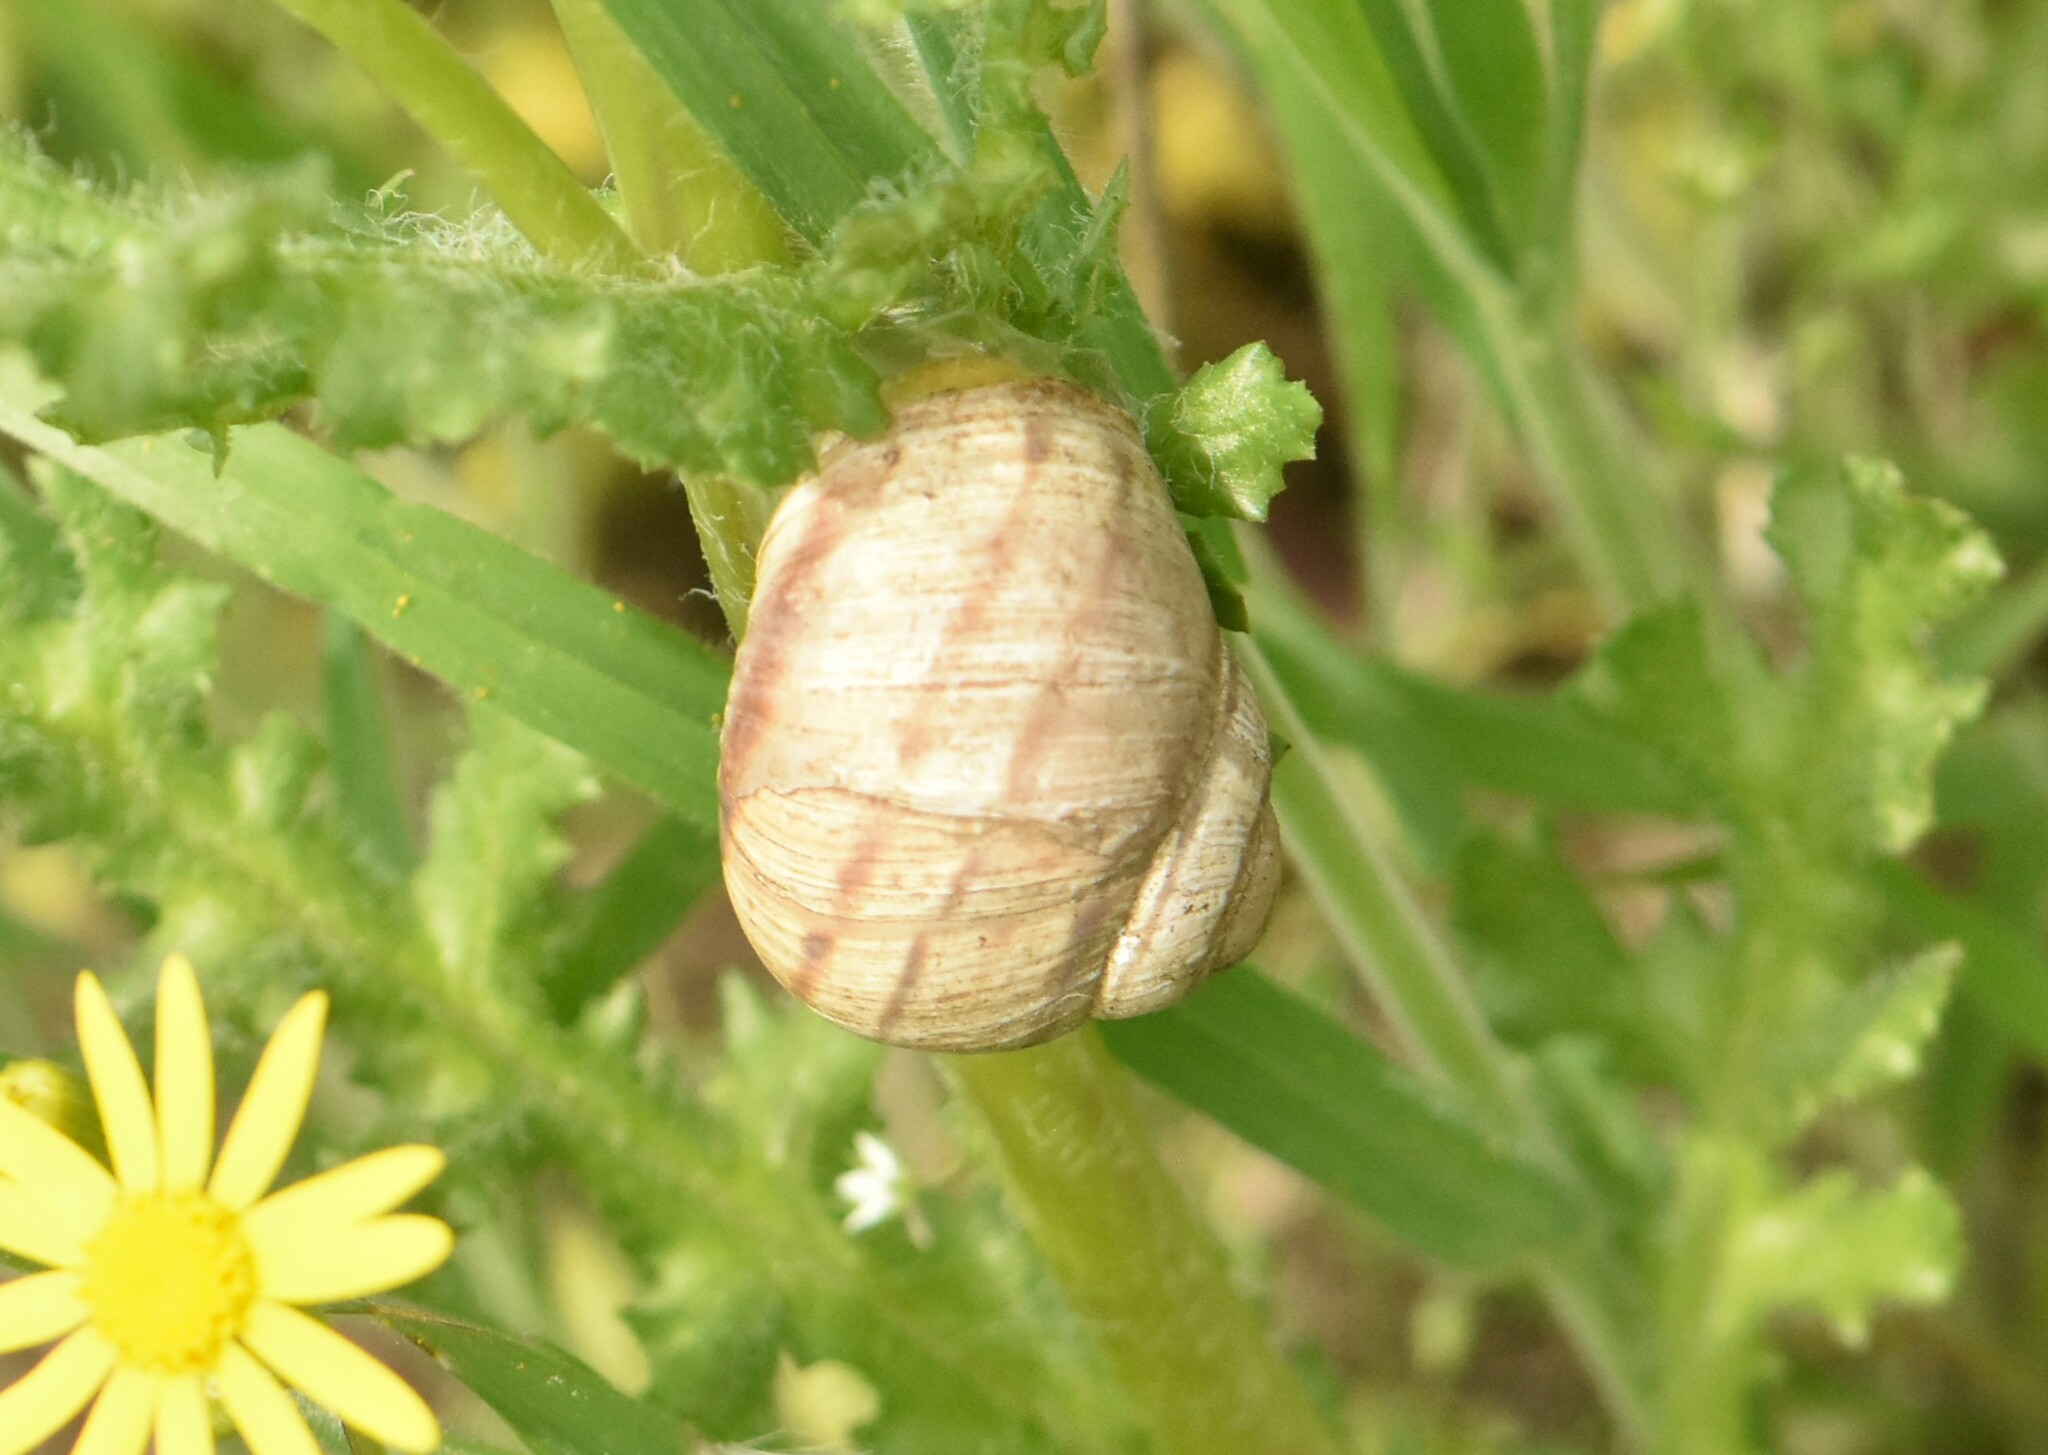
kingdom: Animalia
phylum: Mollusca
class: Gastropoda
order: Stylommatophora
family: Helicidae
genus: Helix
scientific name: Helix albescens
